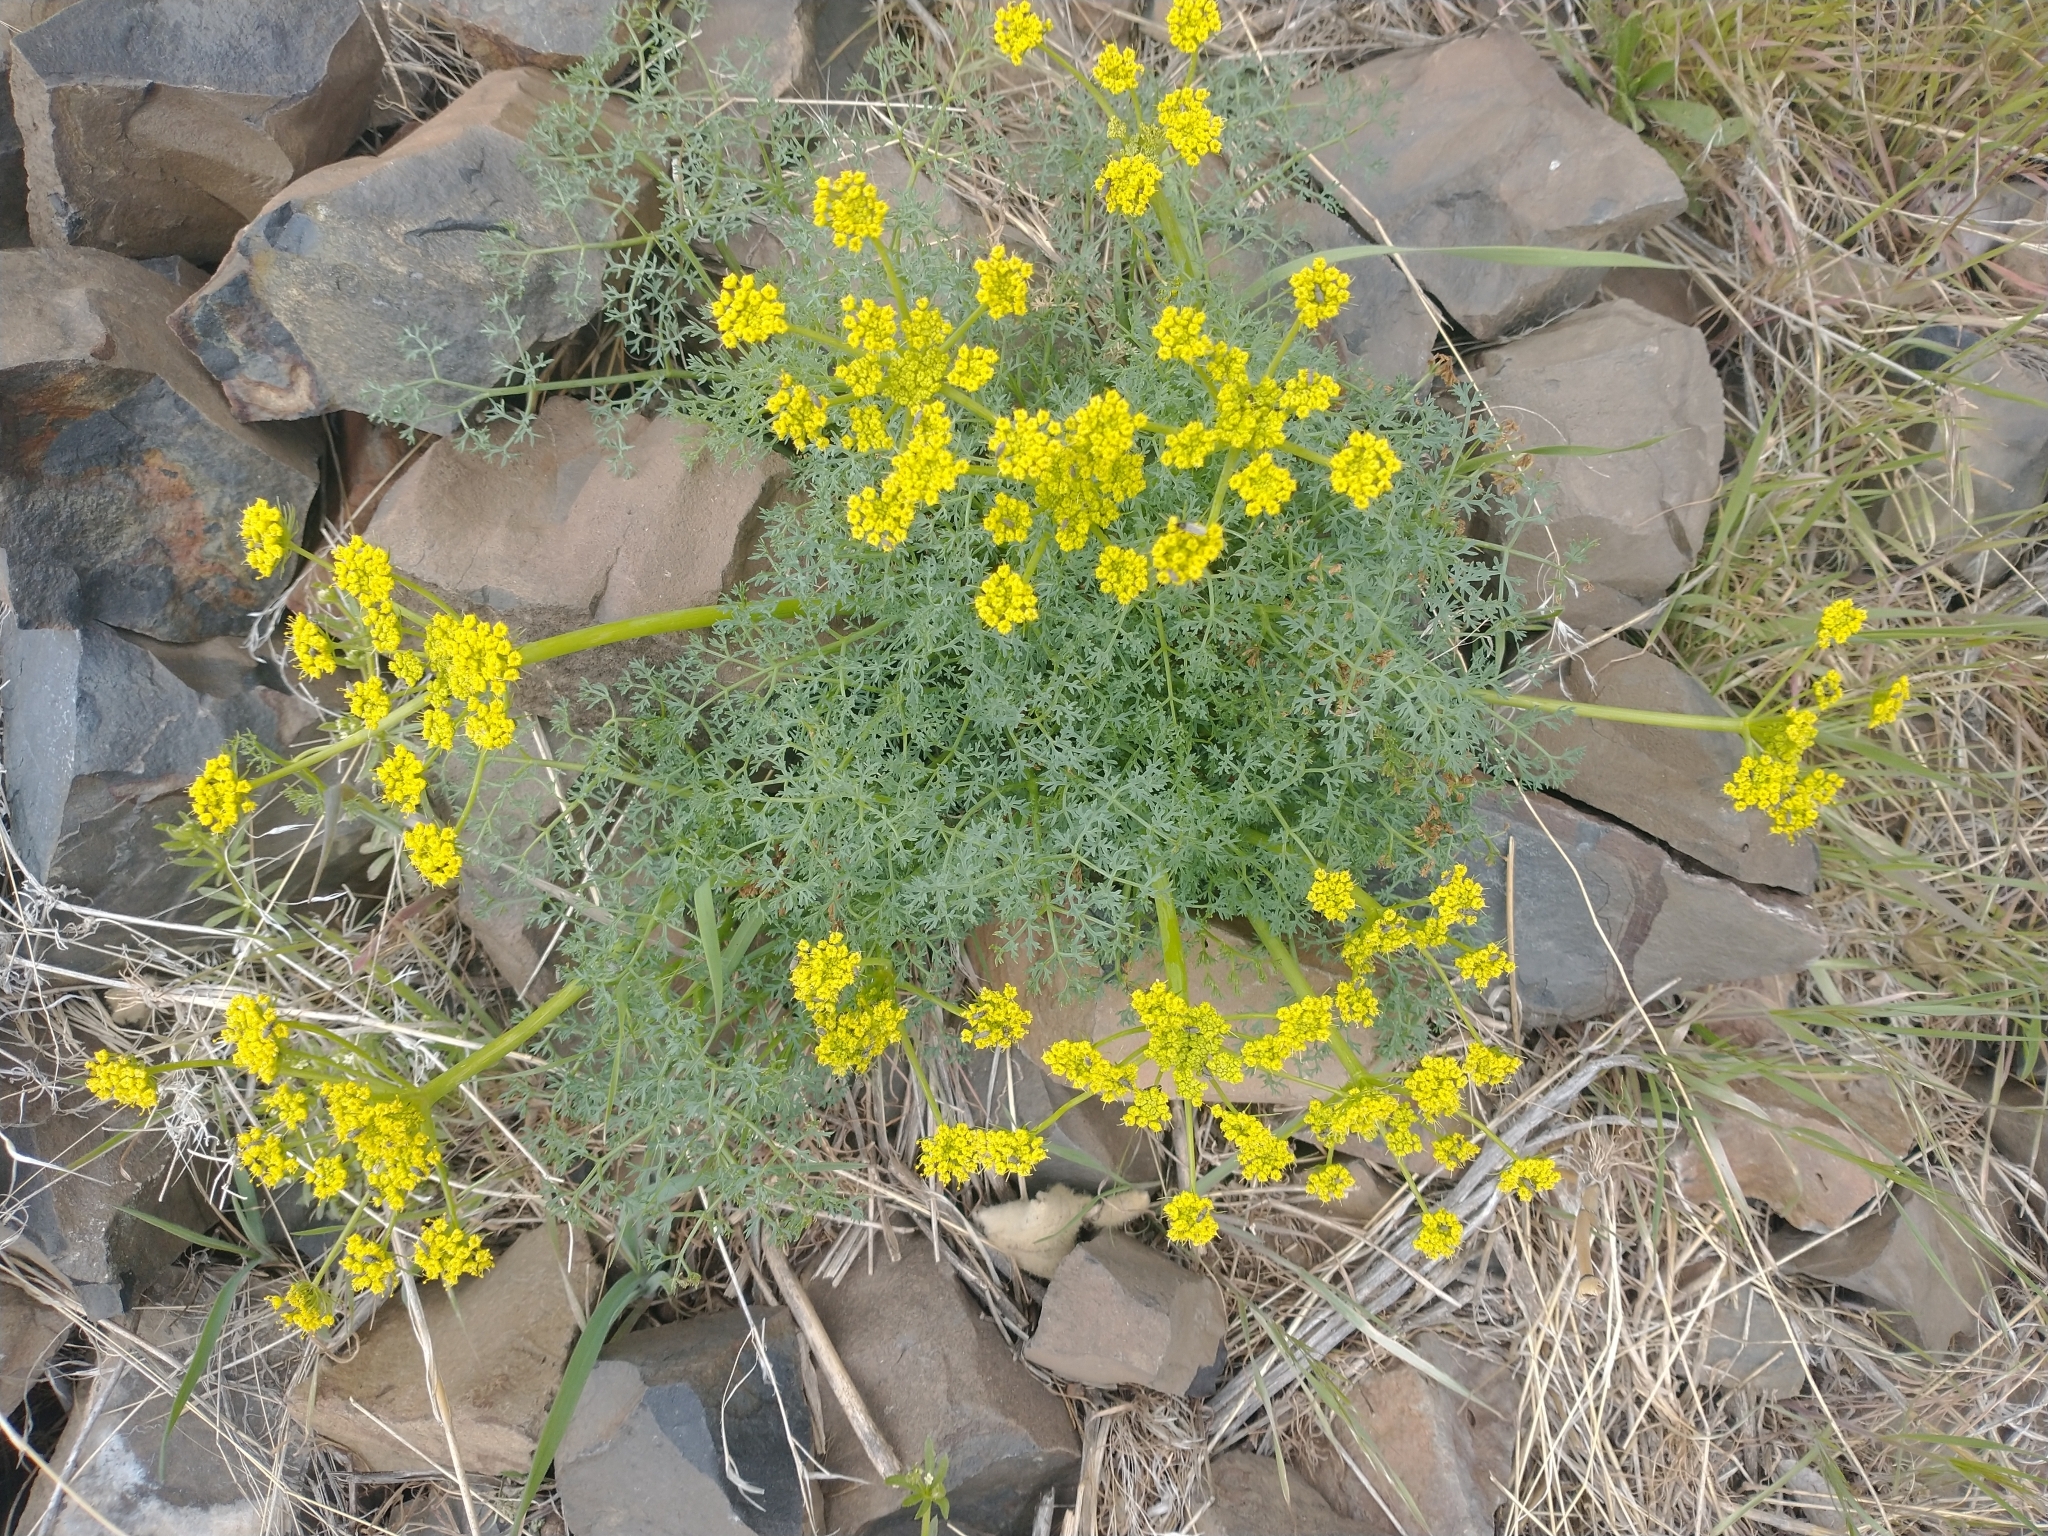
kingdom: Plantae
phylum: Tracheophyta
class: Magnoliopsida
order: Apiales
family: Apiaceae
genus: Lomatium
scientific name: Lomatium papilioniferum
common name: Butterfly lomatium
